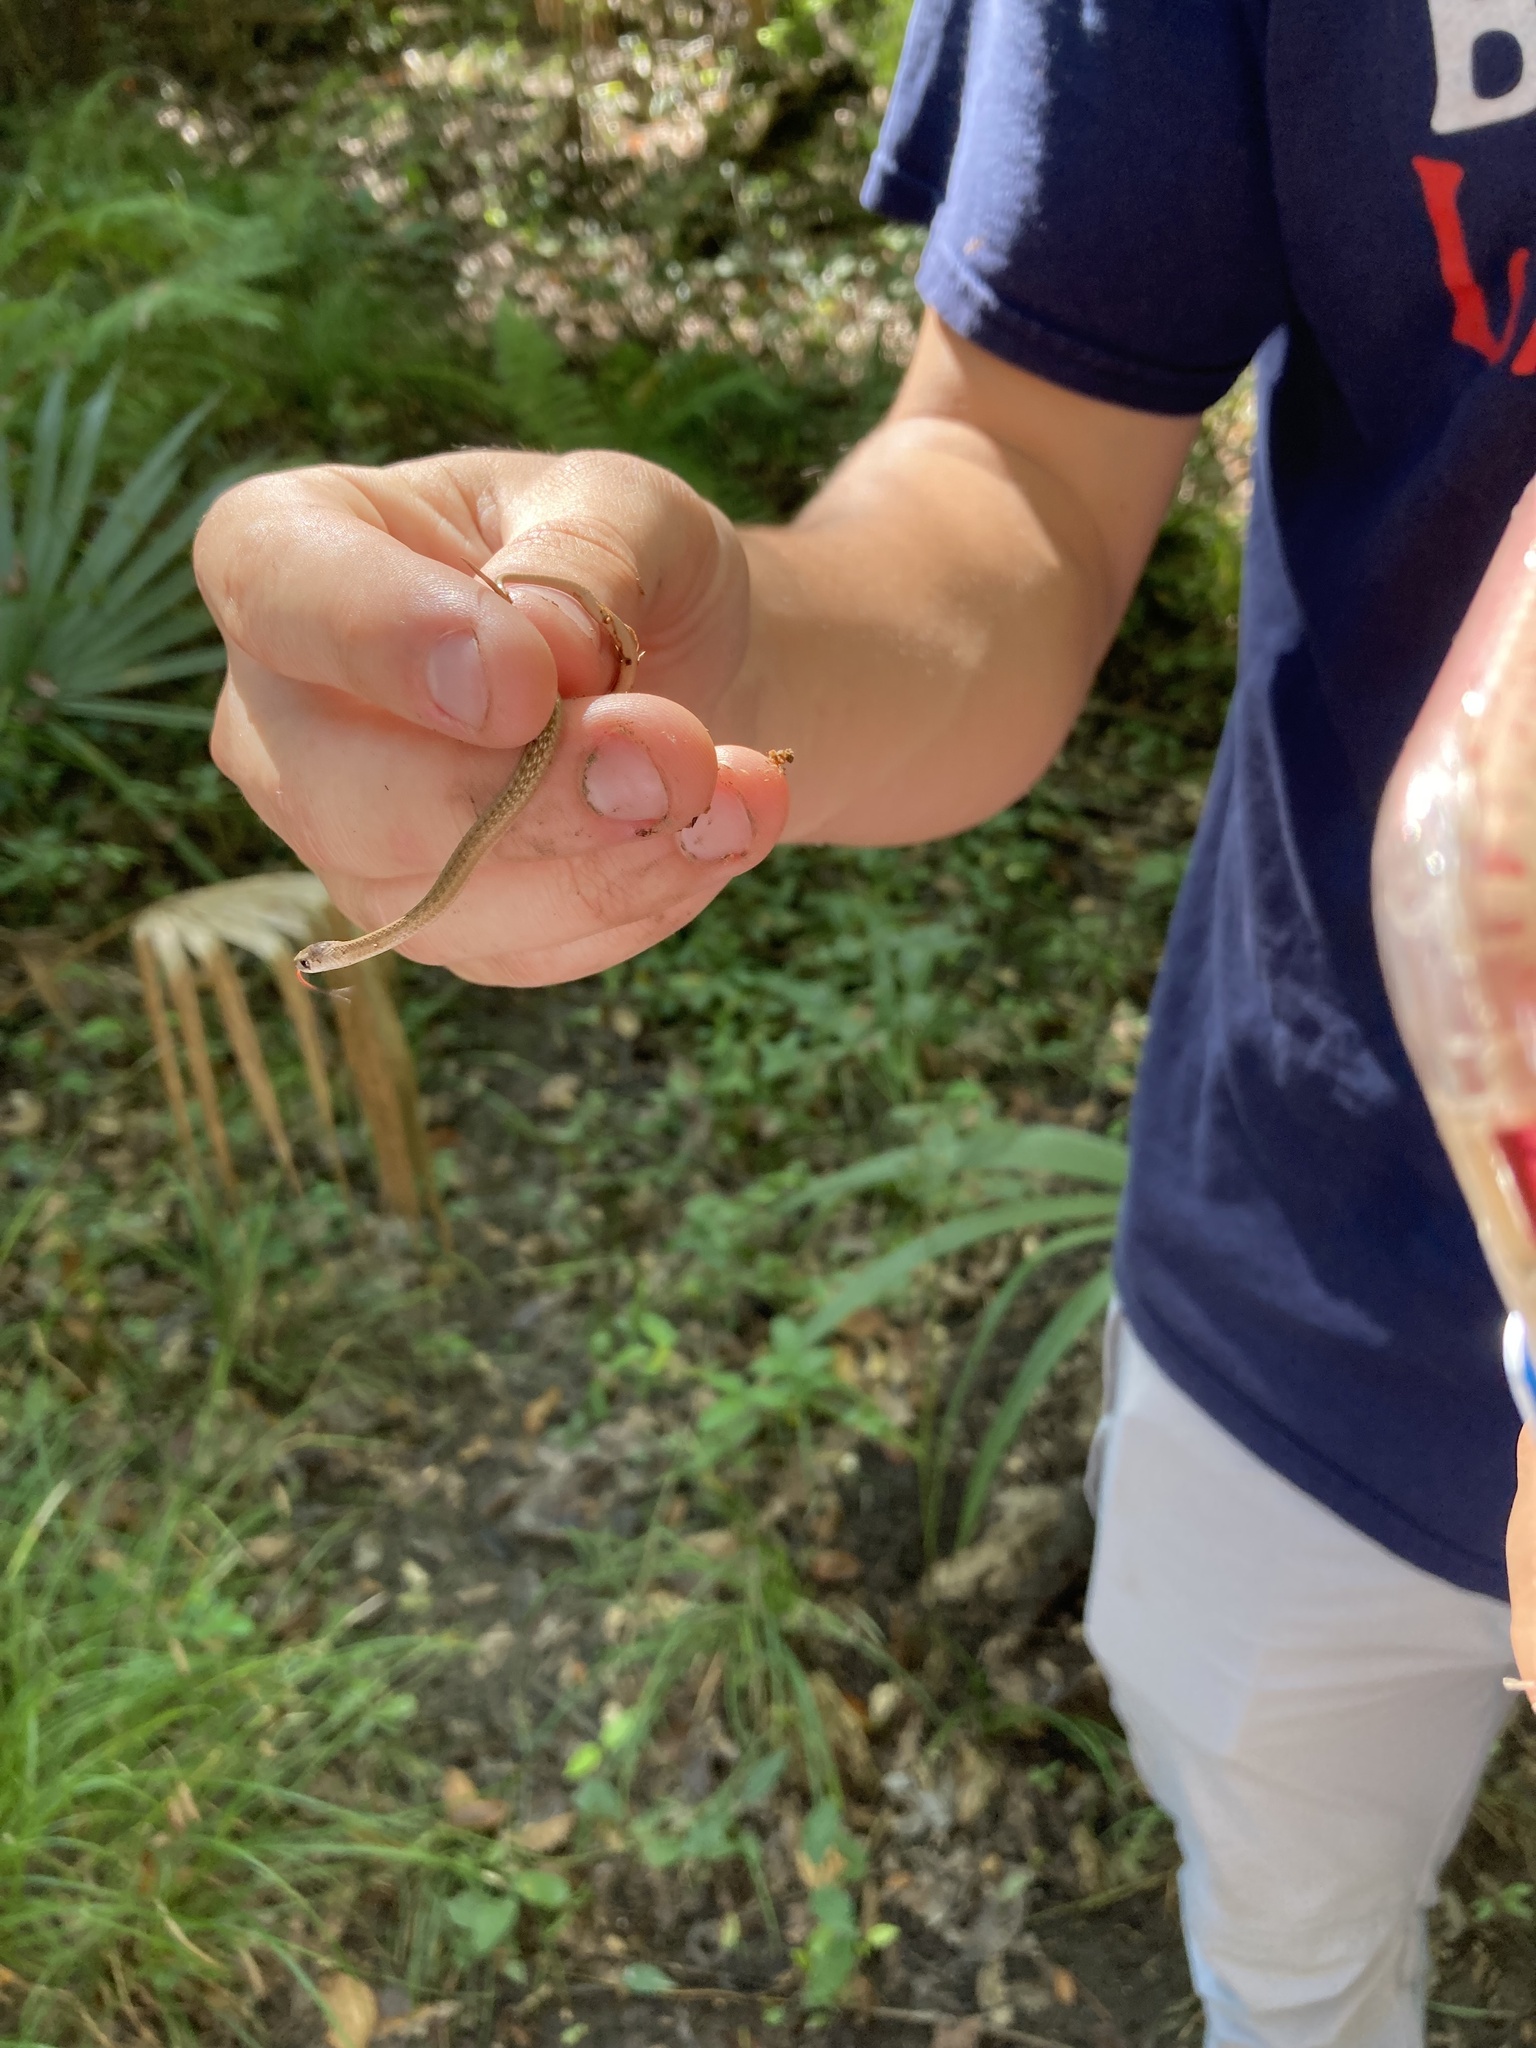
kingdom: Animalia
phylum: Chordata
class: Squamata
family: Colubridae
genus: Storeria
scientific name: Storeria dekayi
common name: (dekay’s) brown snake
